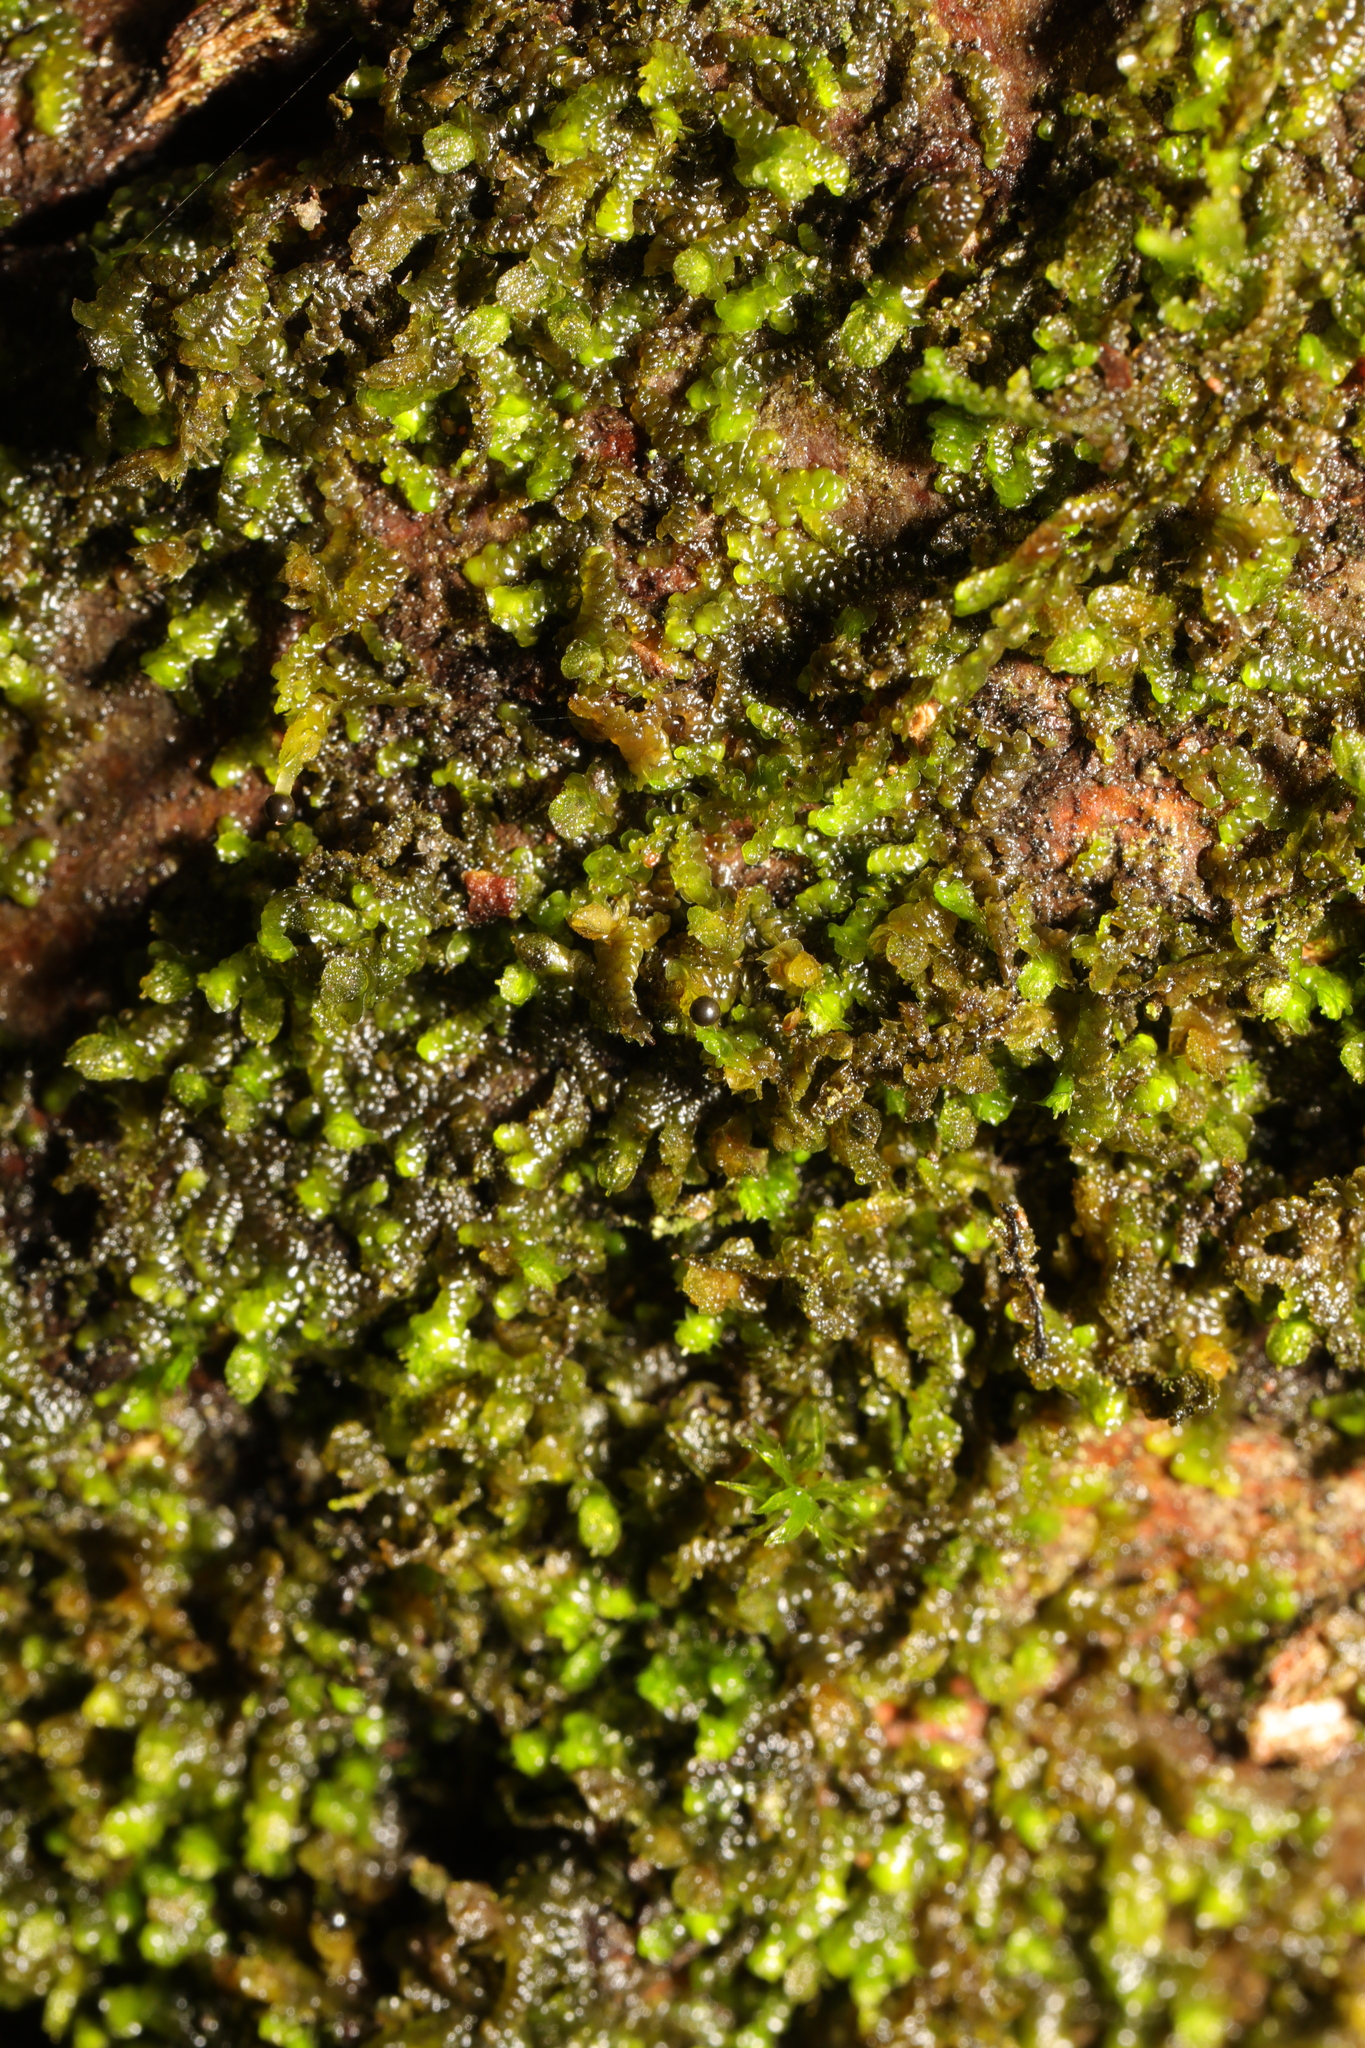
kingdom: Plantae
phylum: Marchantiophyta
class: Jungermanniopsida
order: Porellales
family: Frullaniaceae
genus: Frullania
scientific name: Frullania dilatata
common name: Dilated scalewort
